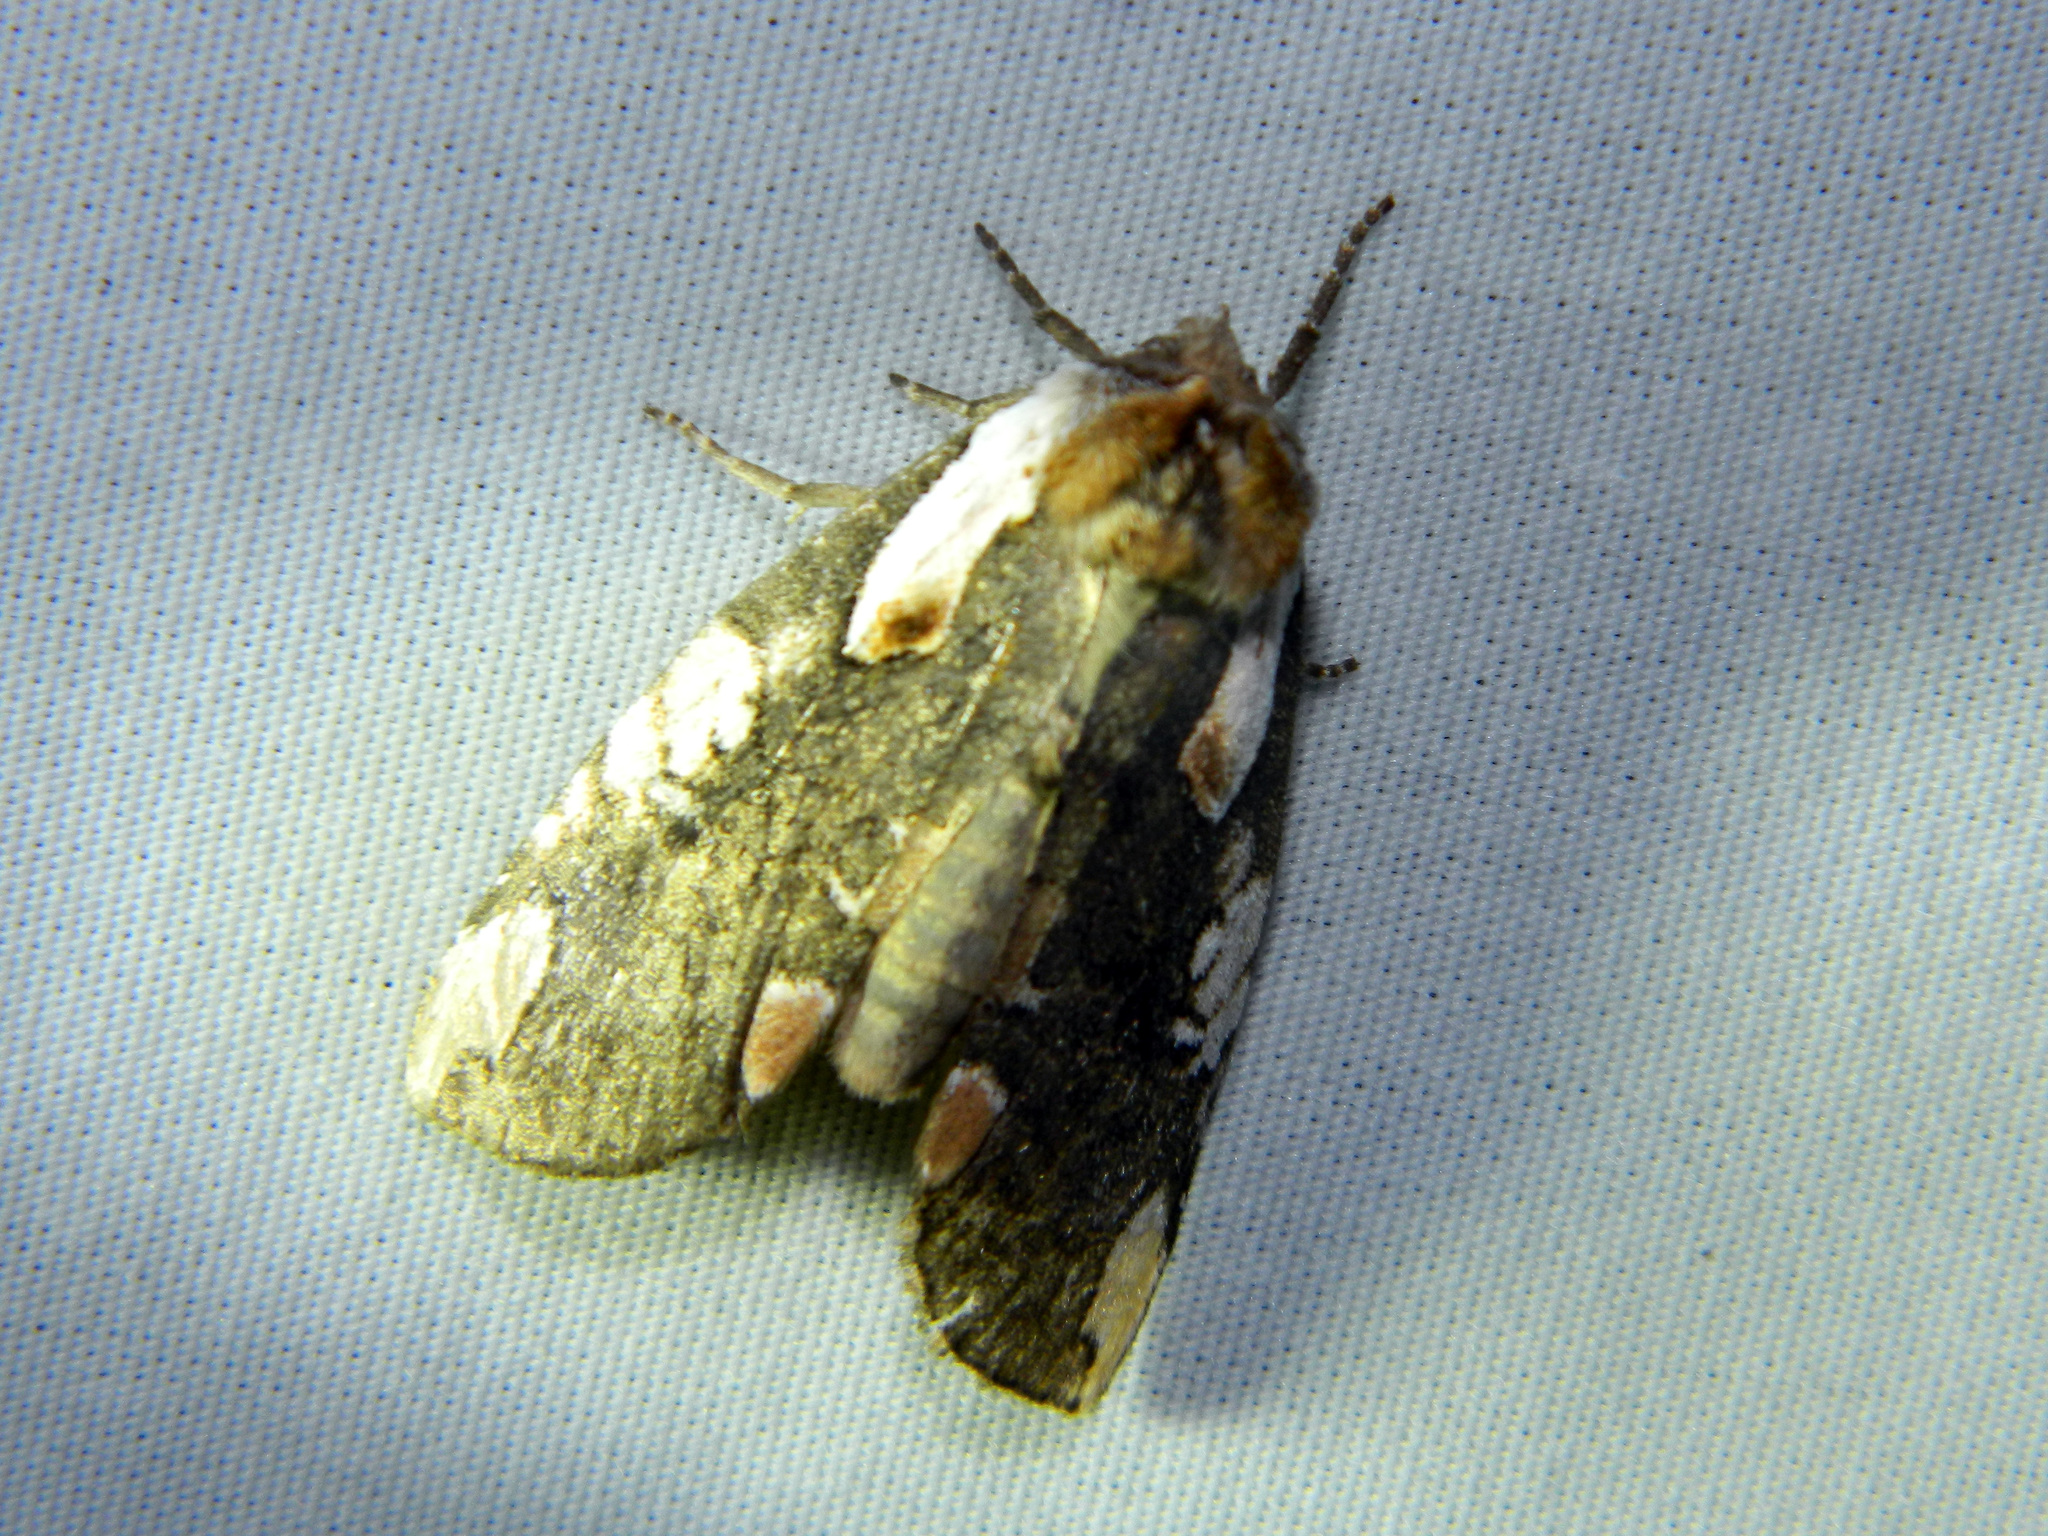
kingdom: Animalia
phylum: Arthropoda
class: Insecta
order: Lepidoptera
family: Drepanidae
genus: Euthyatira
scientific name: Euthyatira pudens
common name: Dogwood thyatirid moth
